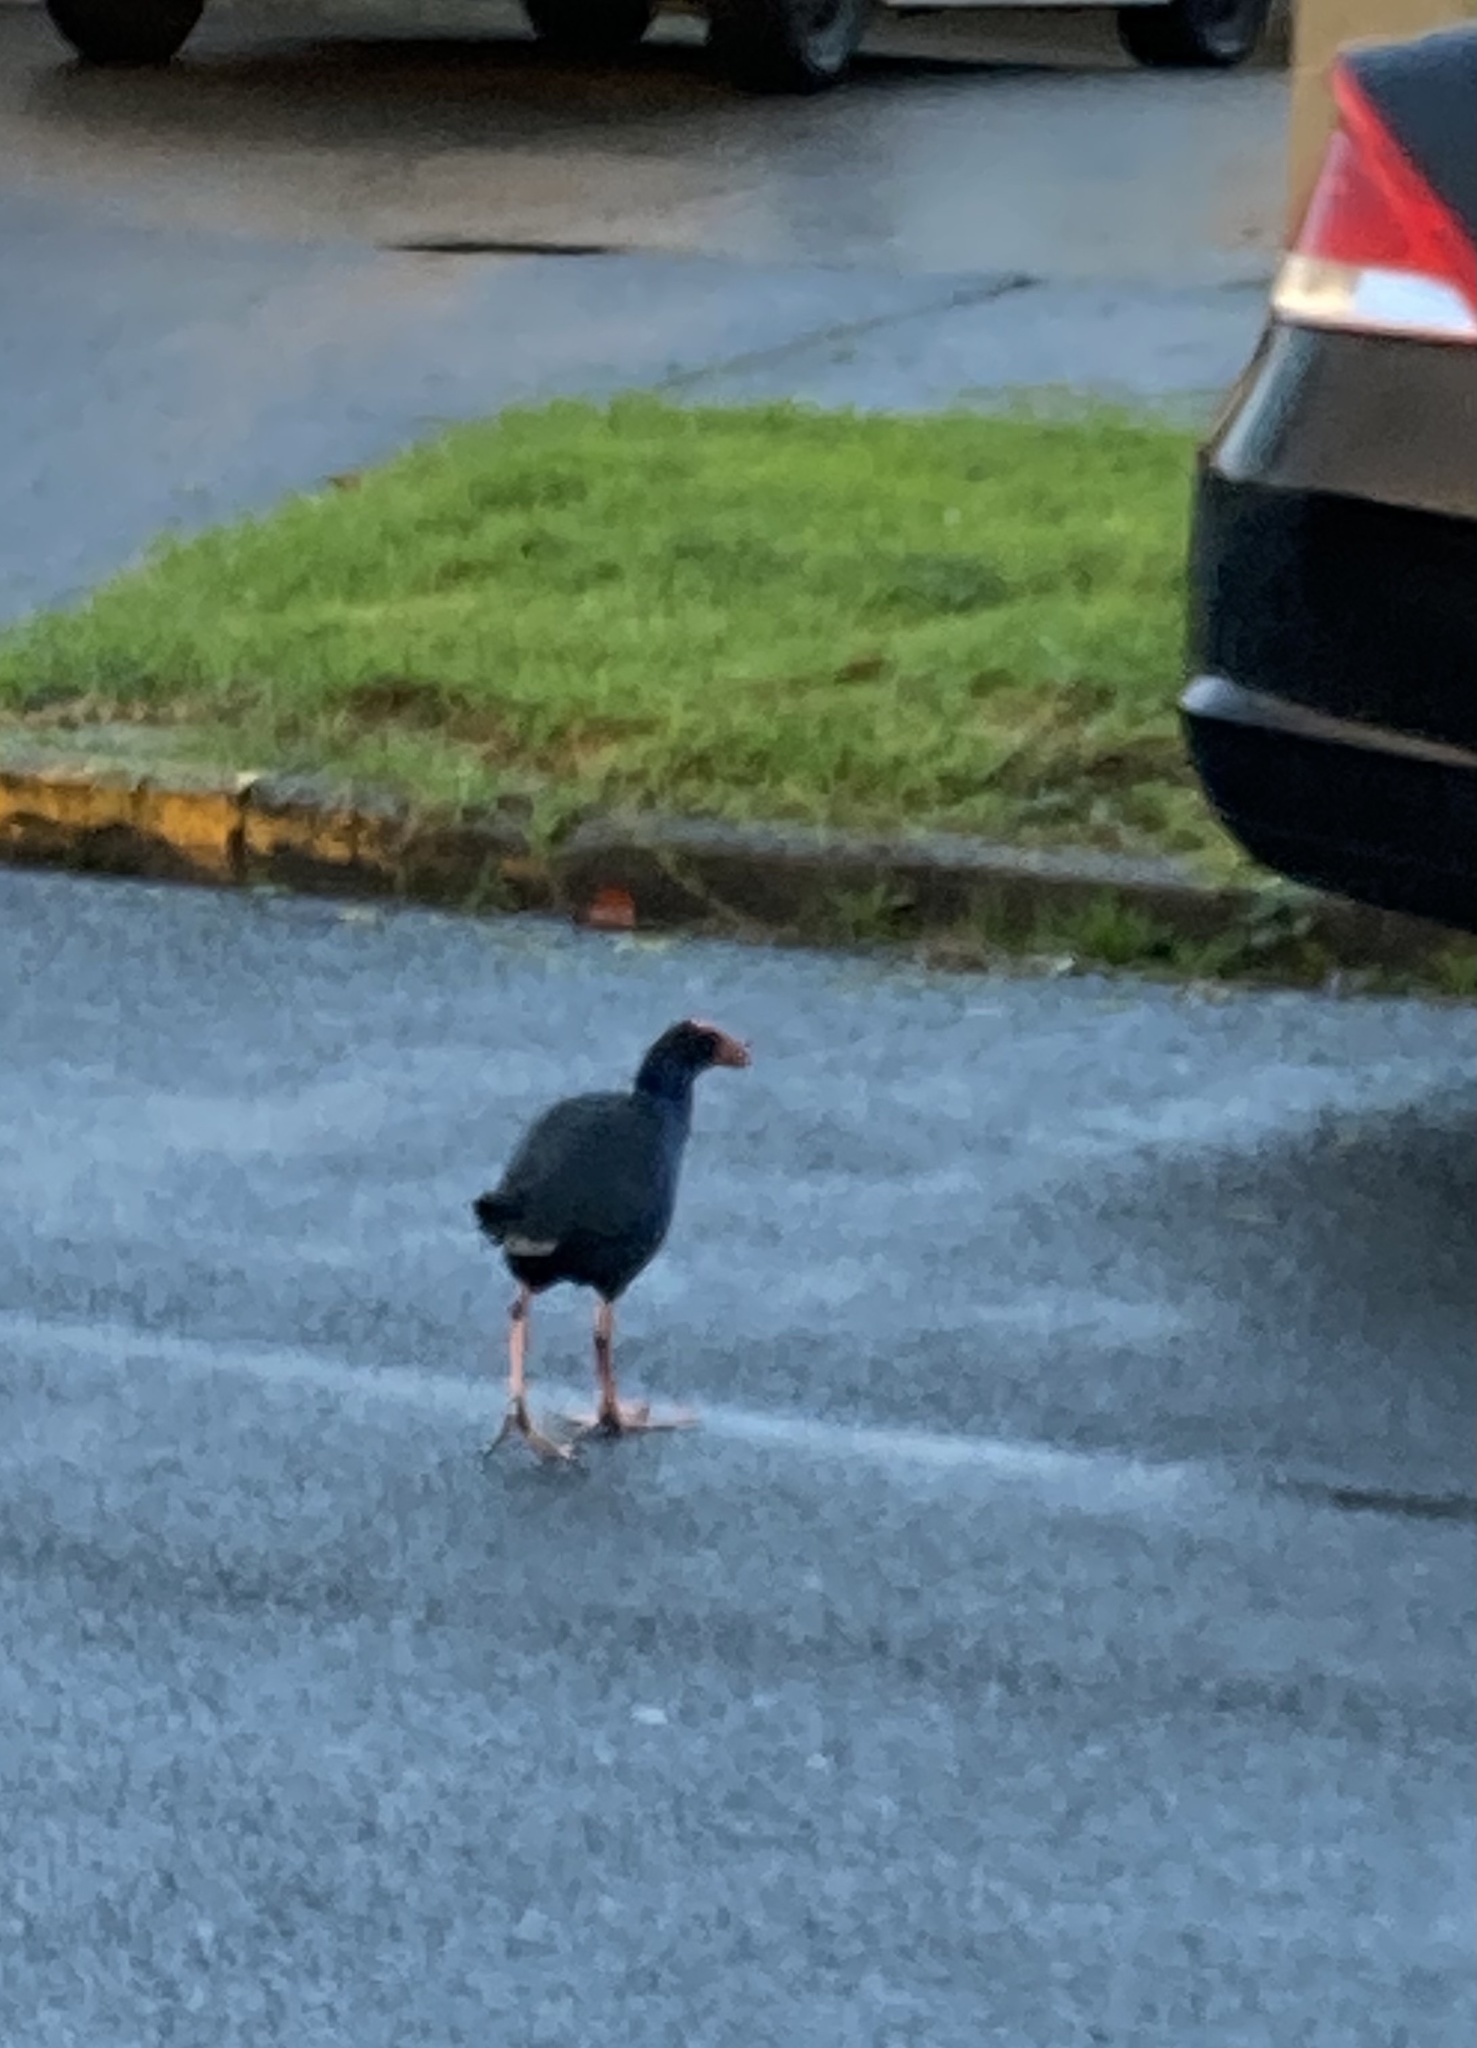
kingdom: Animalia
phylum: Chordata
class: Aves
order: Gruiformes
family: Rallidae
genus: Porphyrio
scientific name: Porphyrio melanotus
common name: Australasian swamphen
